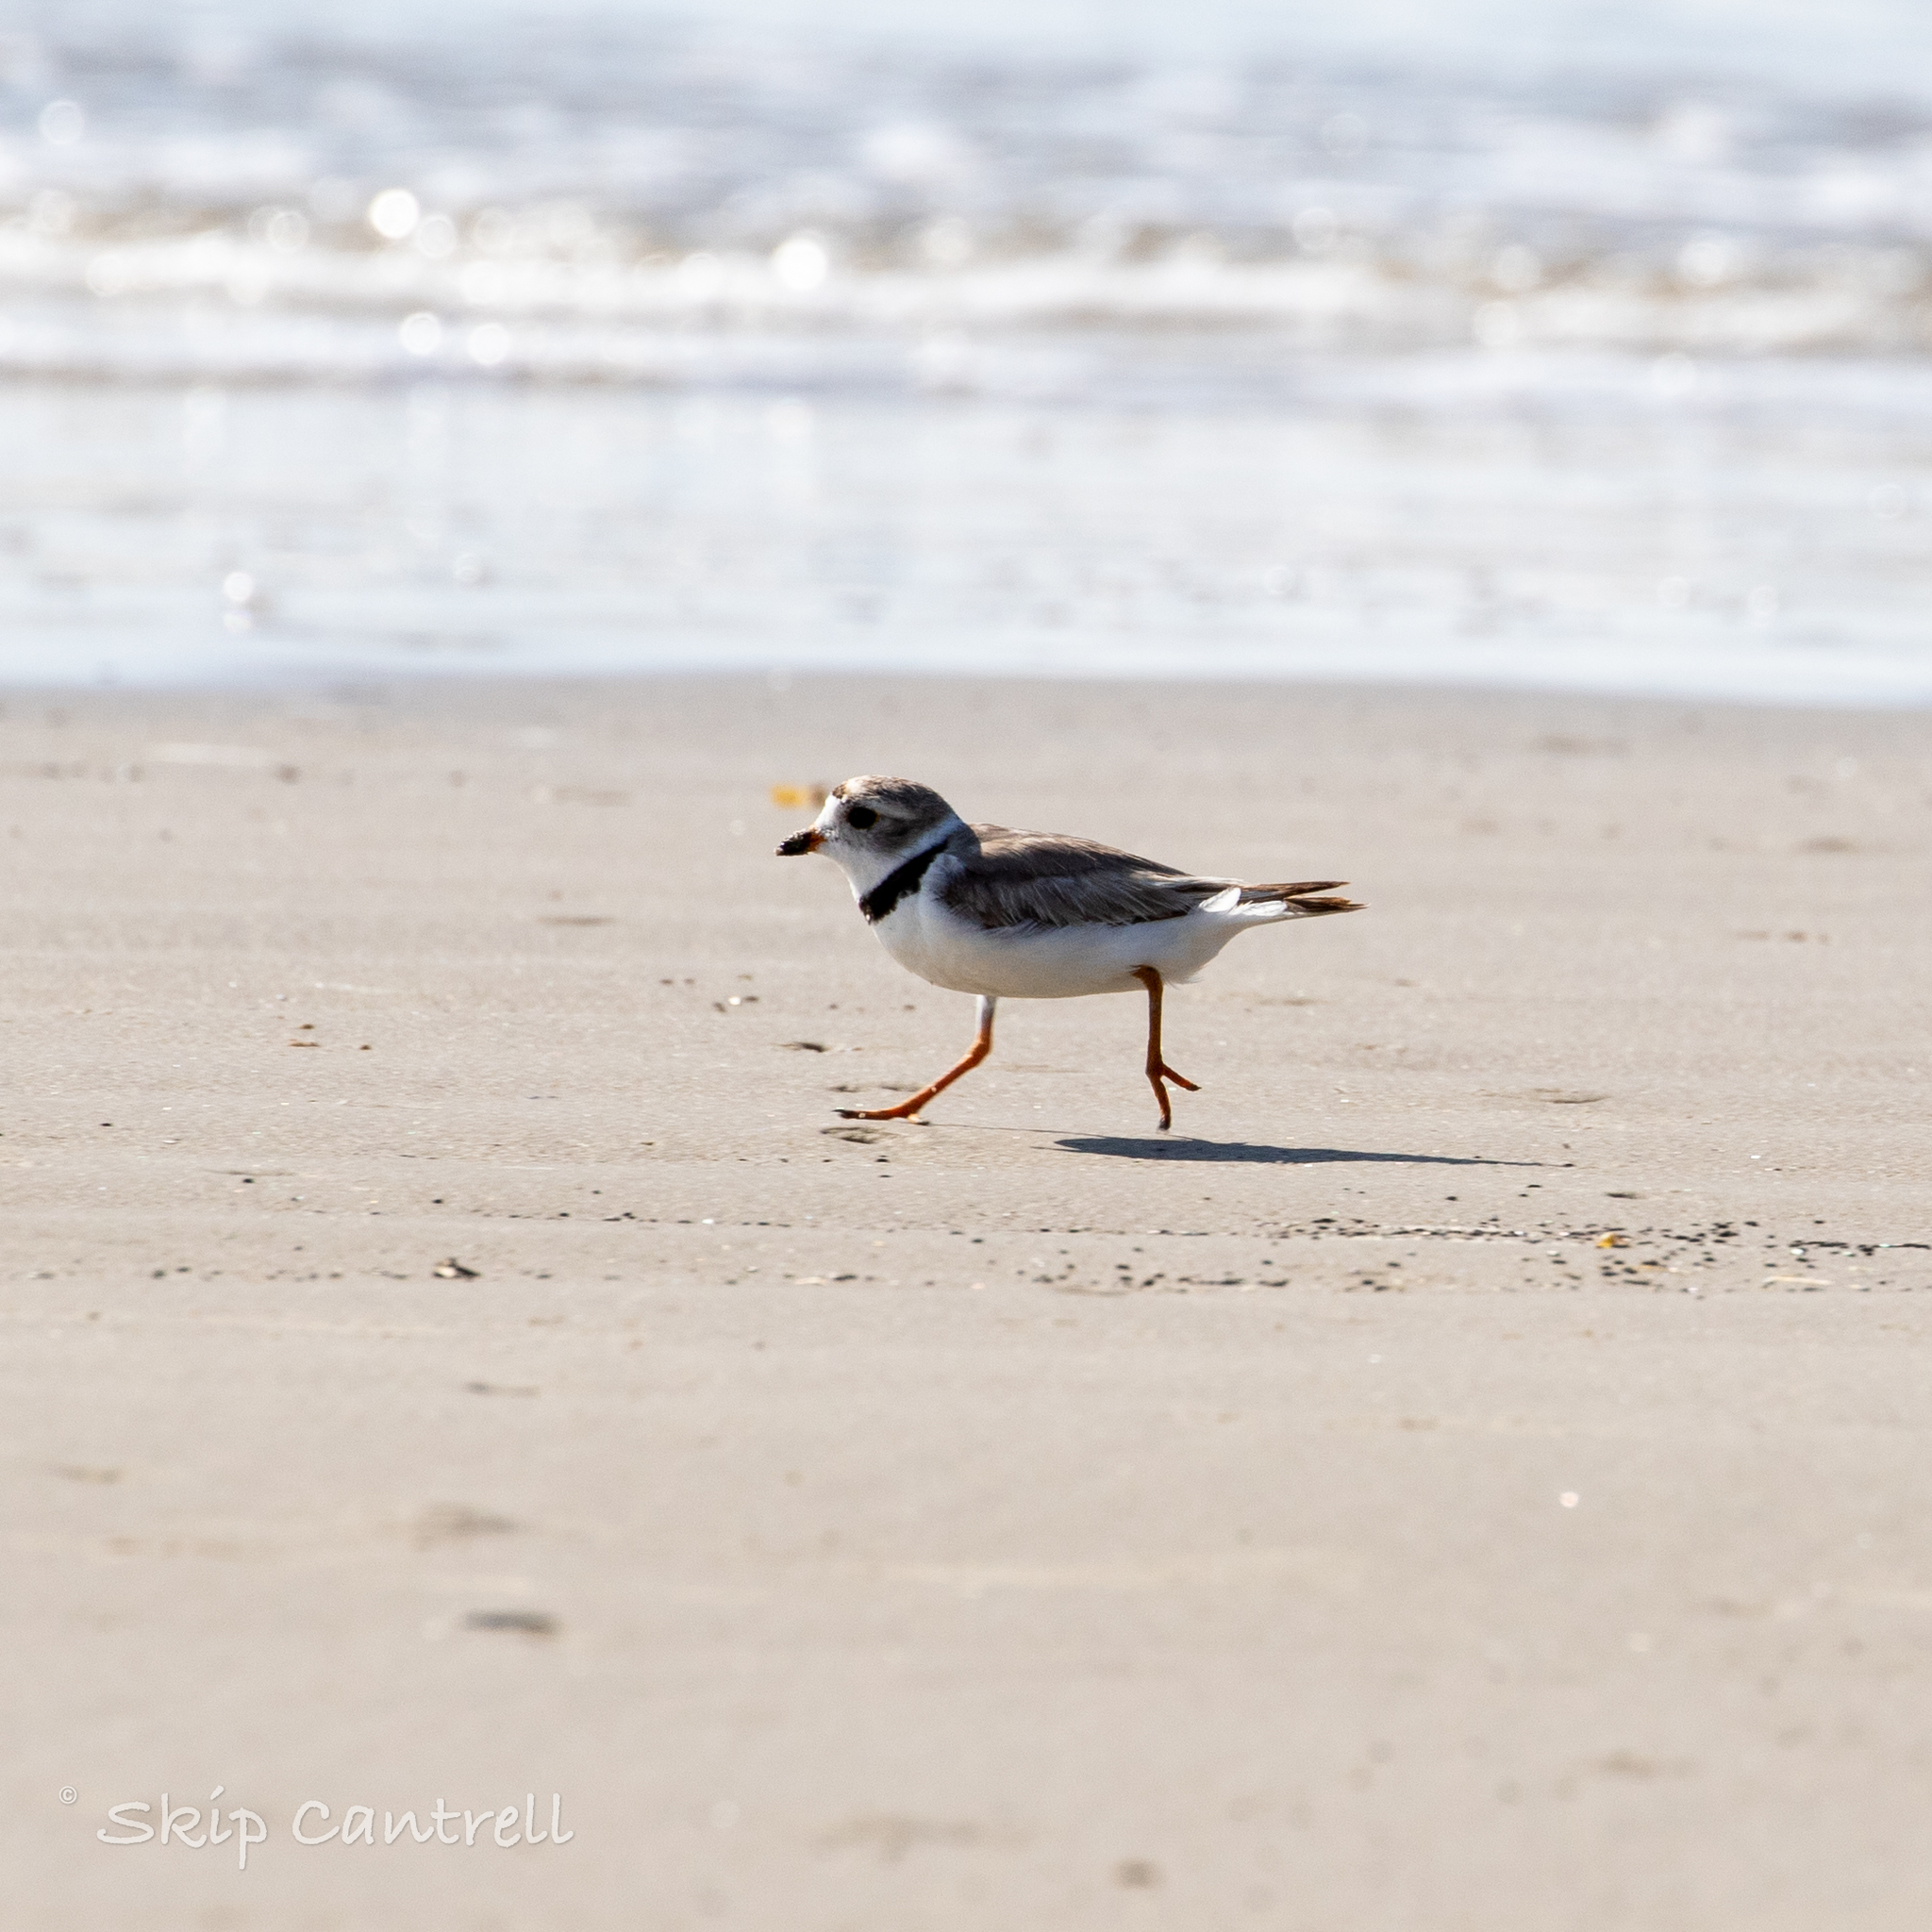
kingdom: Animalia
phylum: Chordata
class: Aves
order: Charadriiformes
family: Charadriidae
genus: Charadrius
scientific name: Charadrius melodus
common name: Piping plover
